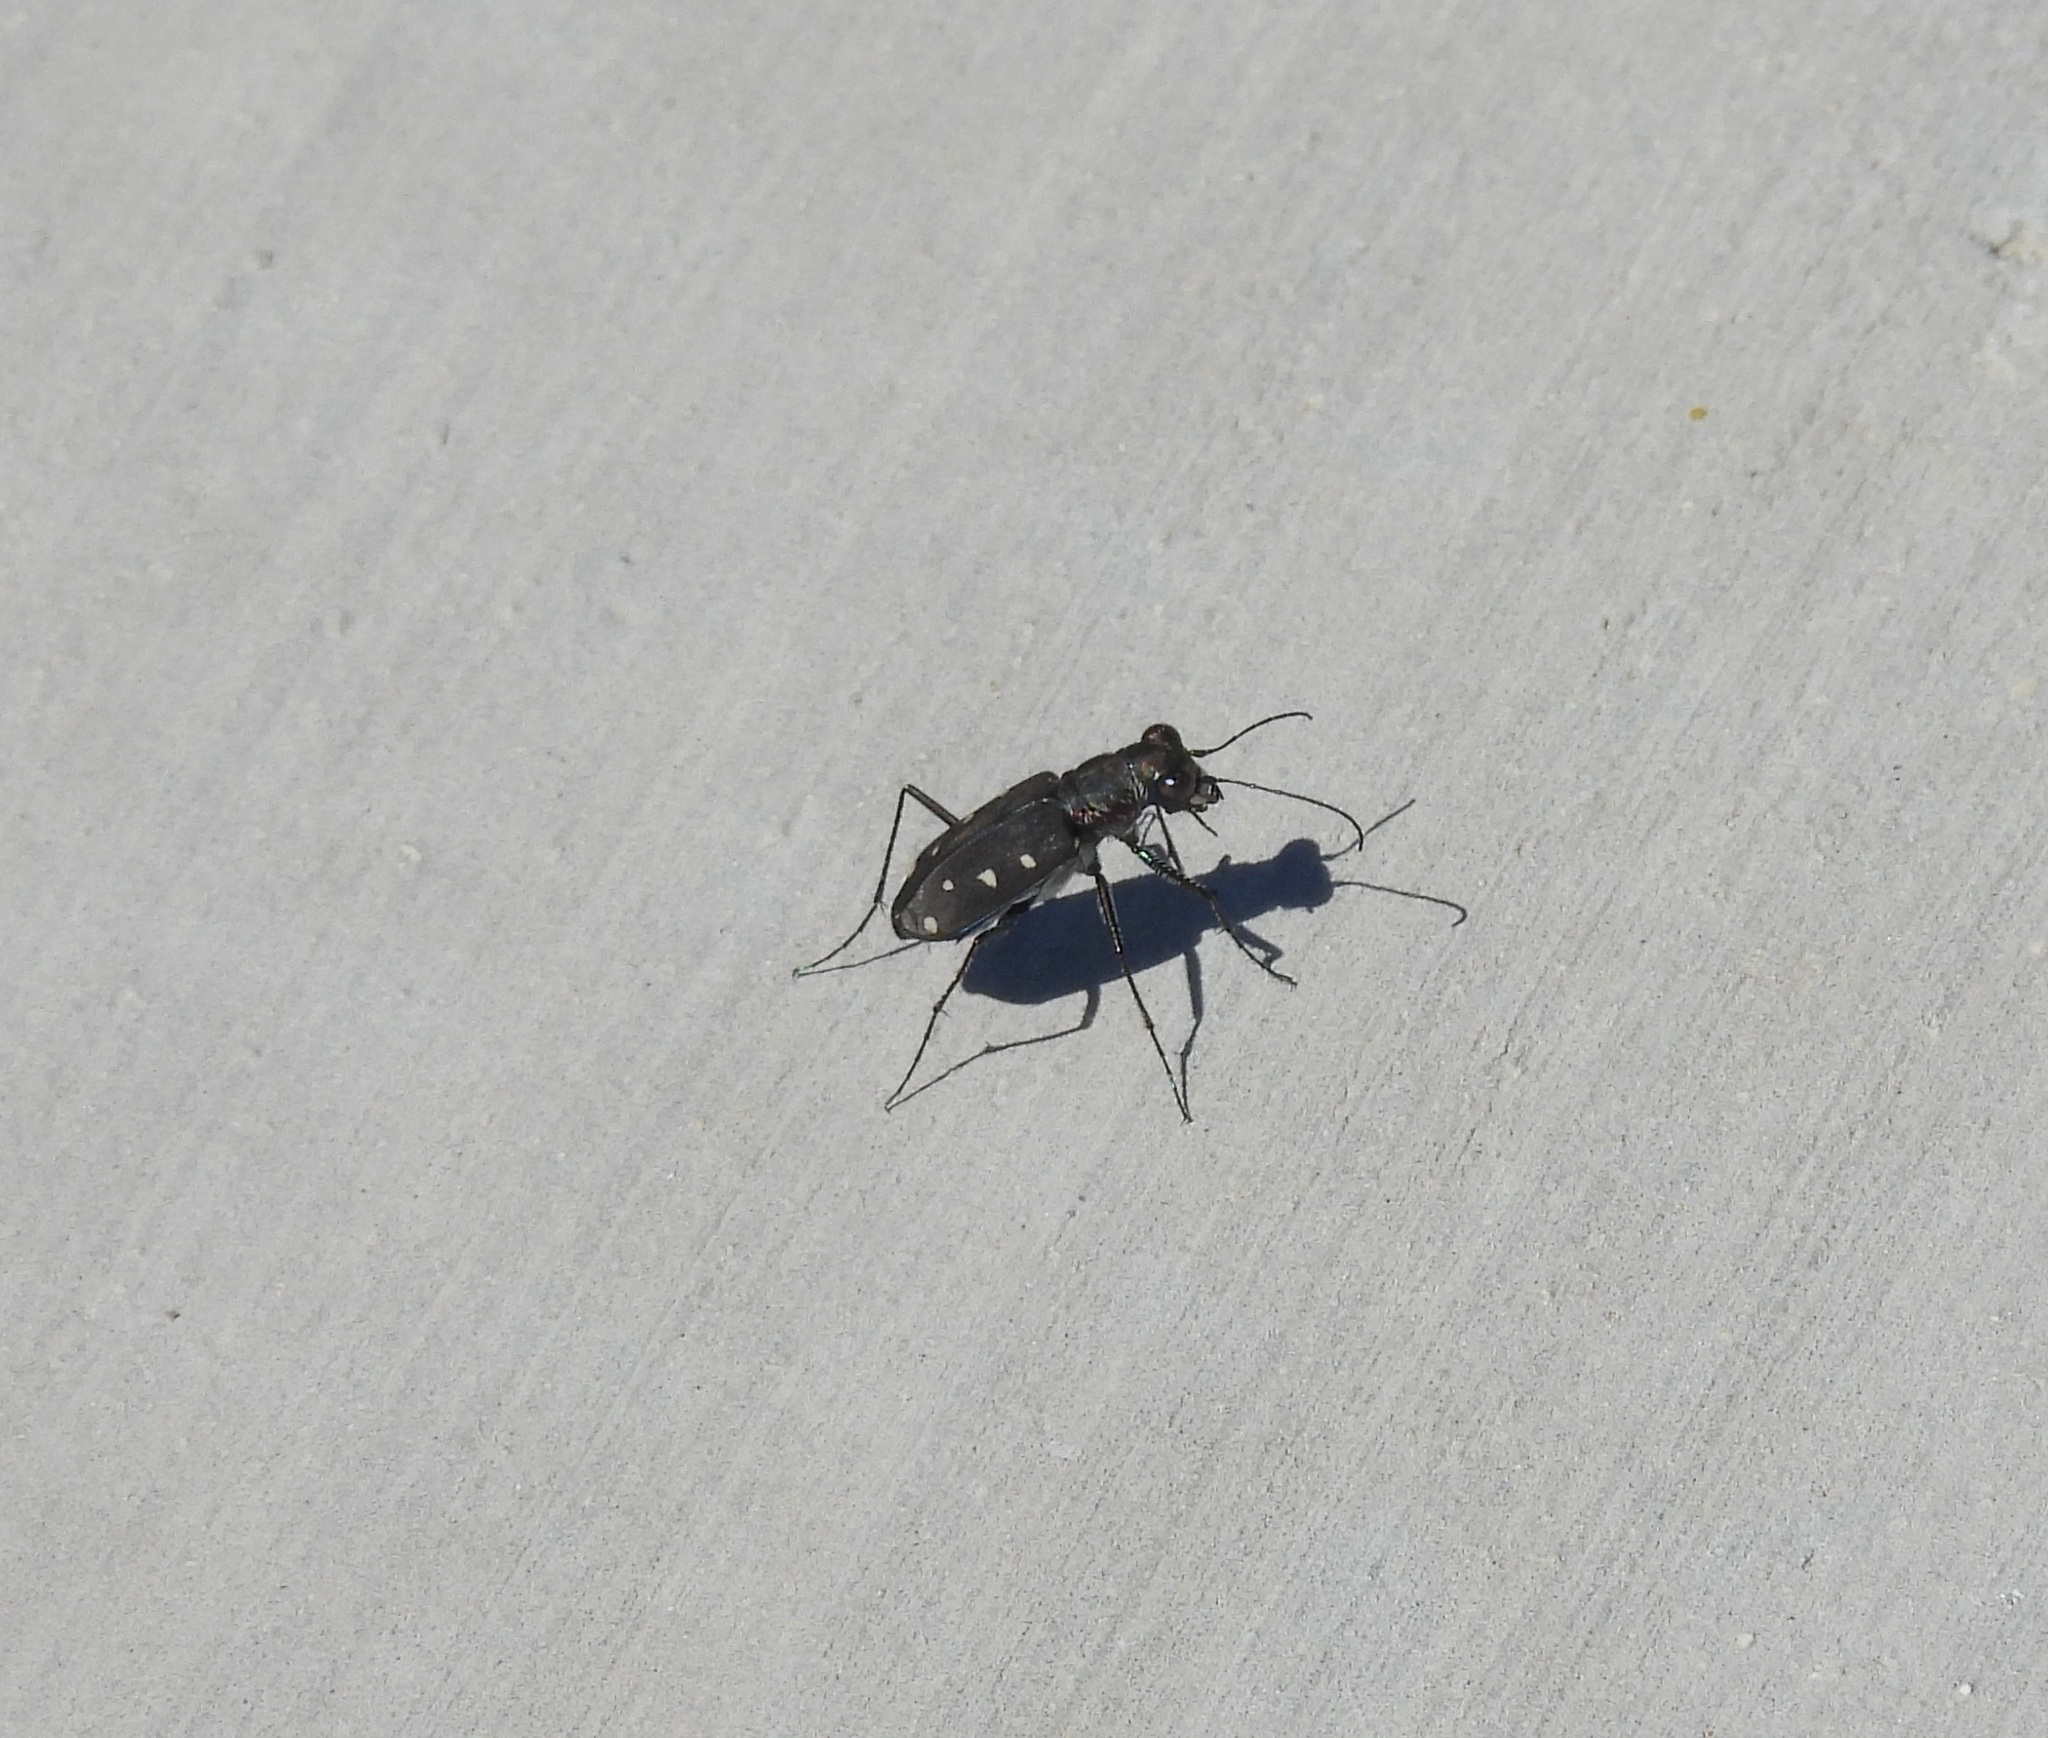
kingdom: Animalia
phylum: Arthropoda
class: Insecta
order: Coleoptera
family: Carabidae
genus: Cicindela
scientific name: Cicindela ocellata
